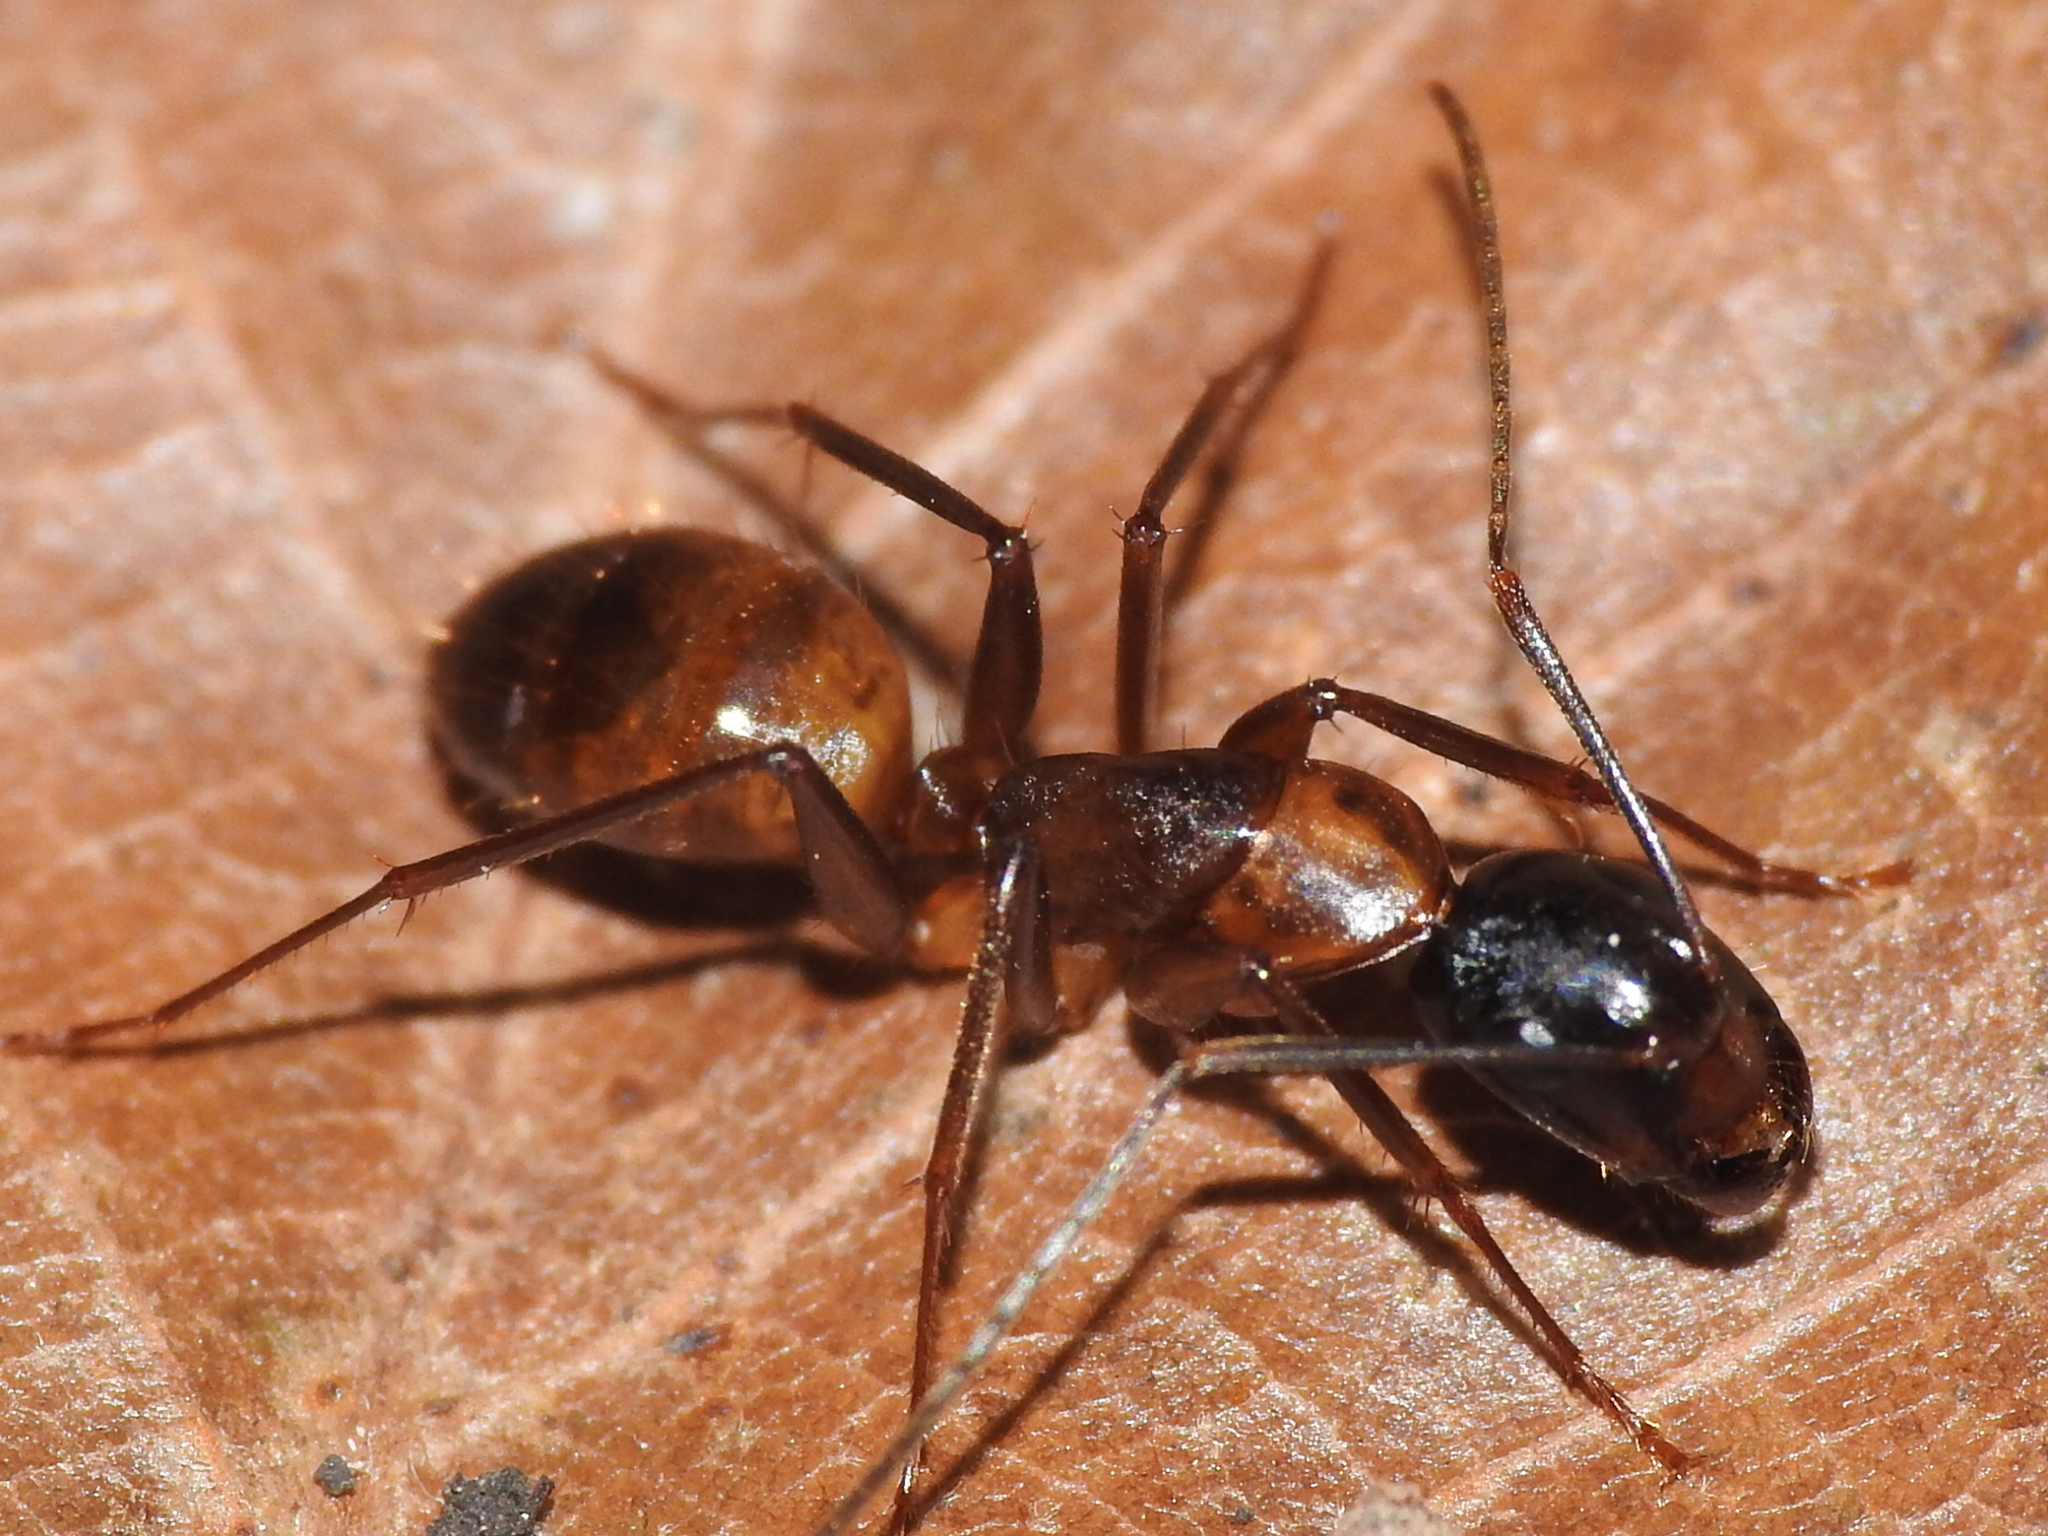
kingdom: Animalia
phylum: Arthropoda
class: Insecta
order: Hymenoptera
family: Formicidae
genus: Camponotus
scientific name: Camponotus americanus
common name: American carpenter ant
